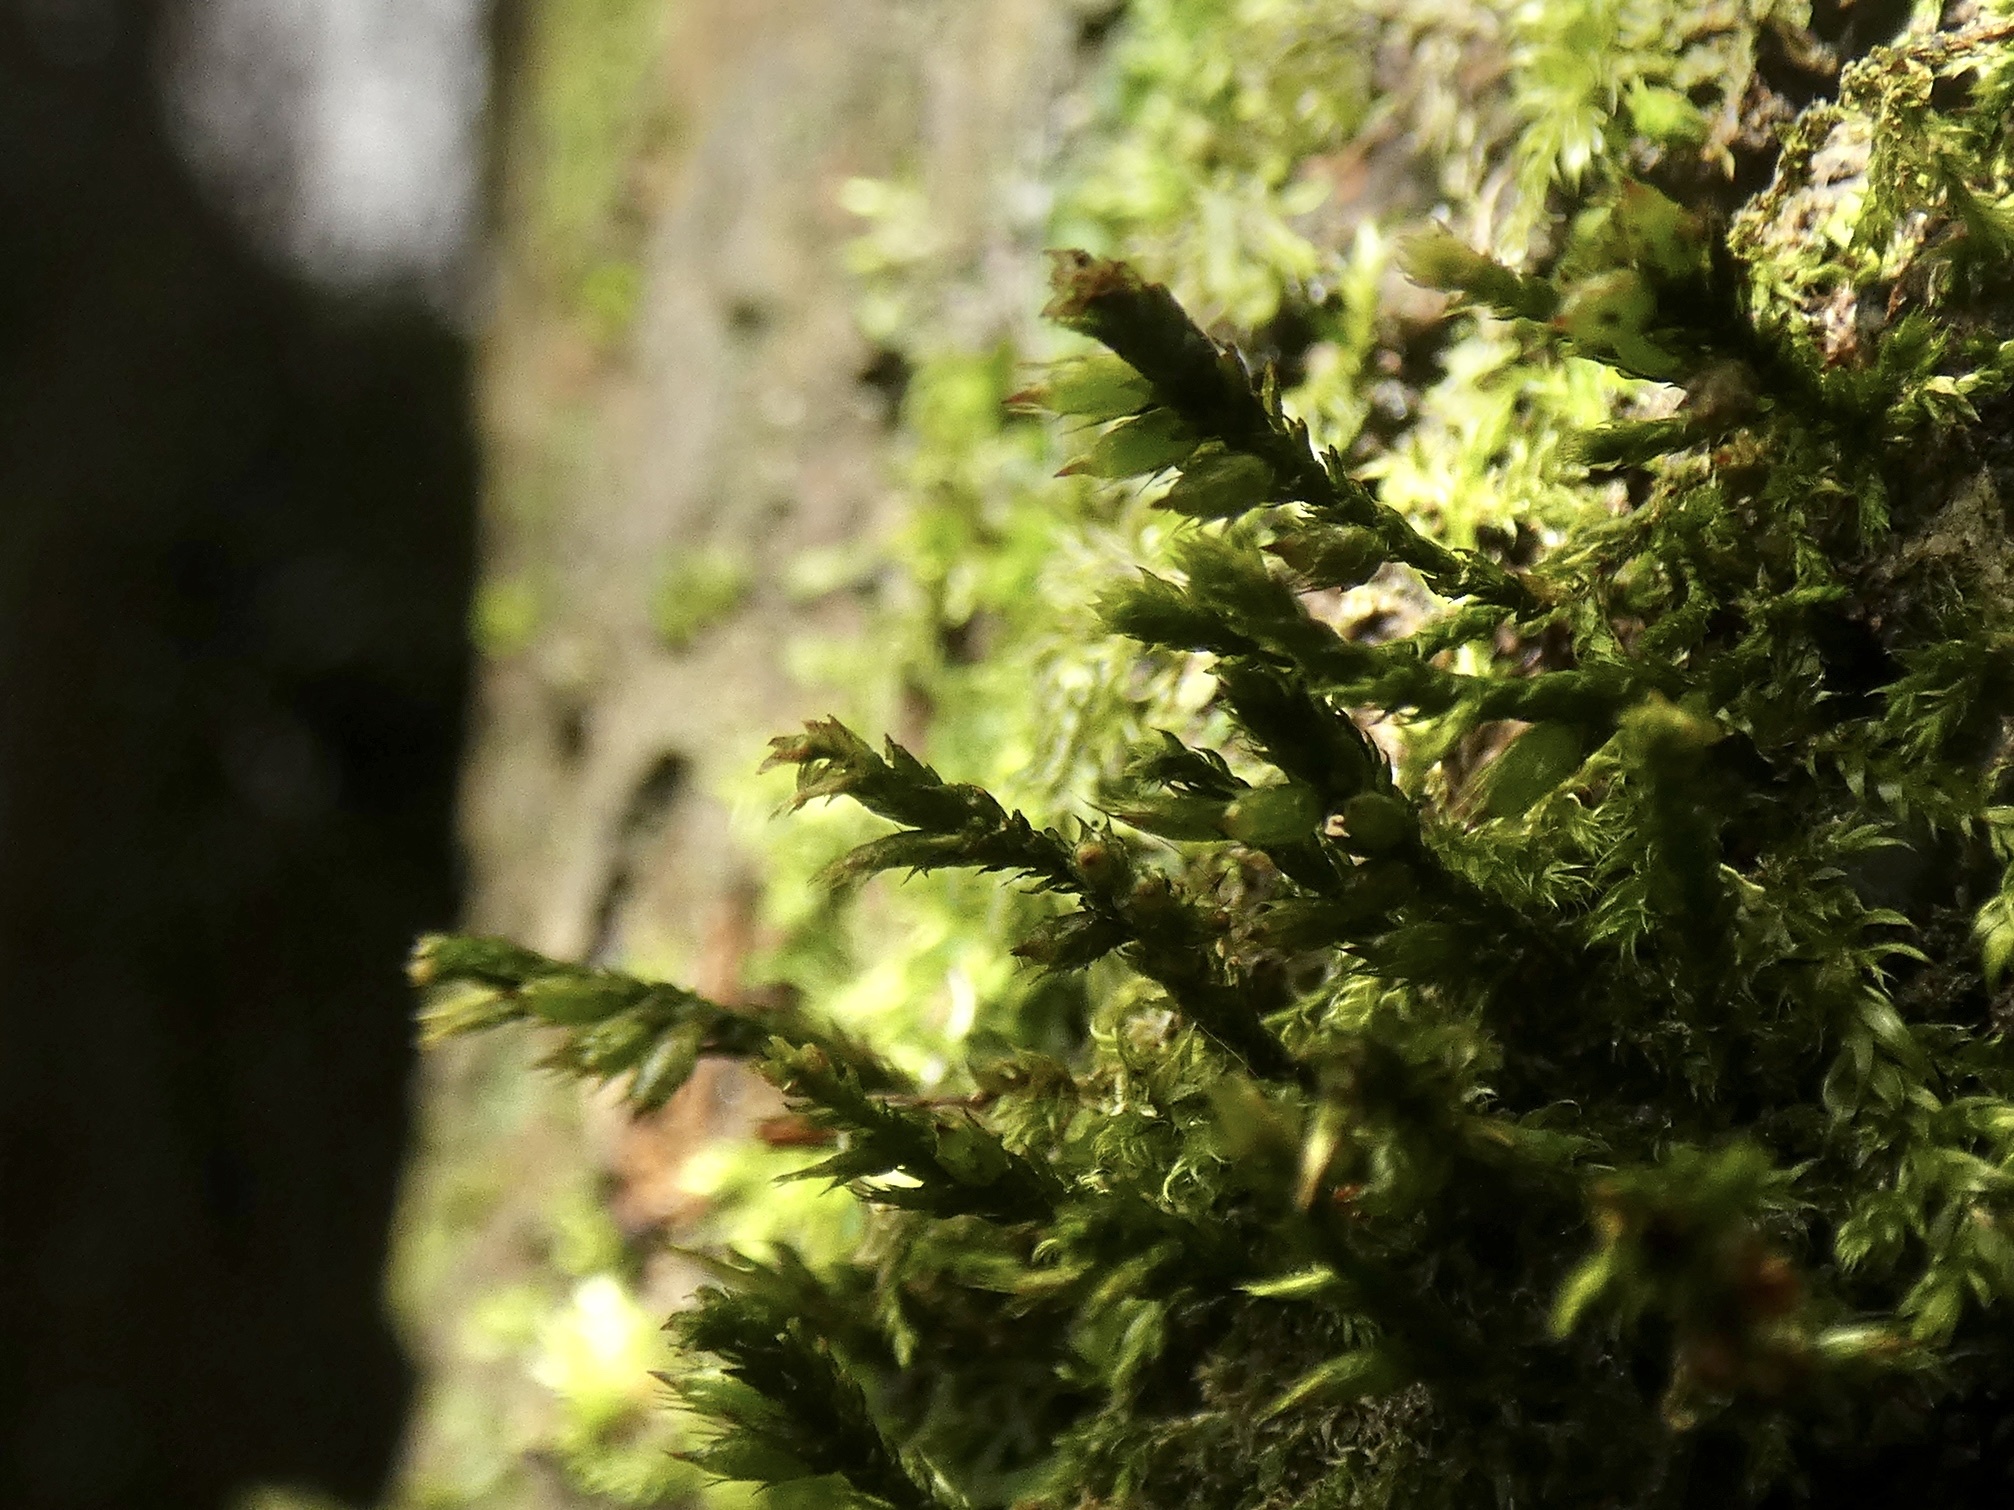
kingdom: Plantae
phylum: Bryophyta
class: Bryopsida
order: Hypnales
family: Cryphaeaceae
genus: Cryphaea
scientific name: Cryphaea heteromalla
